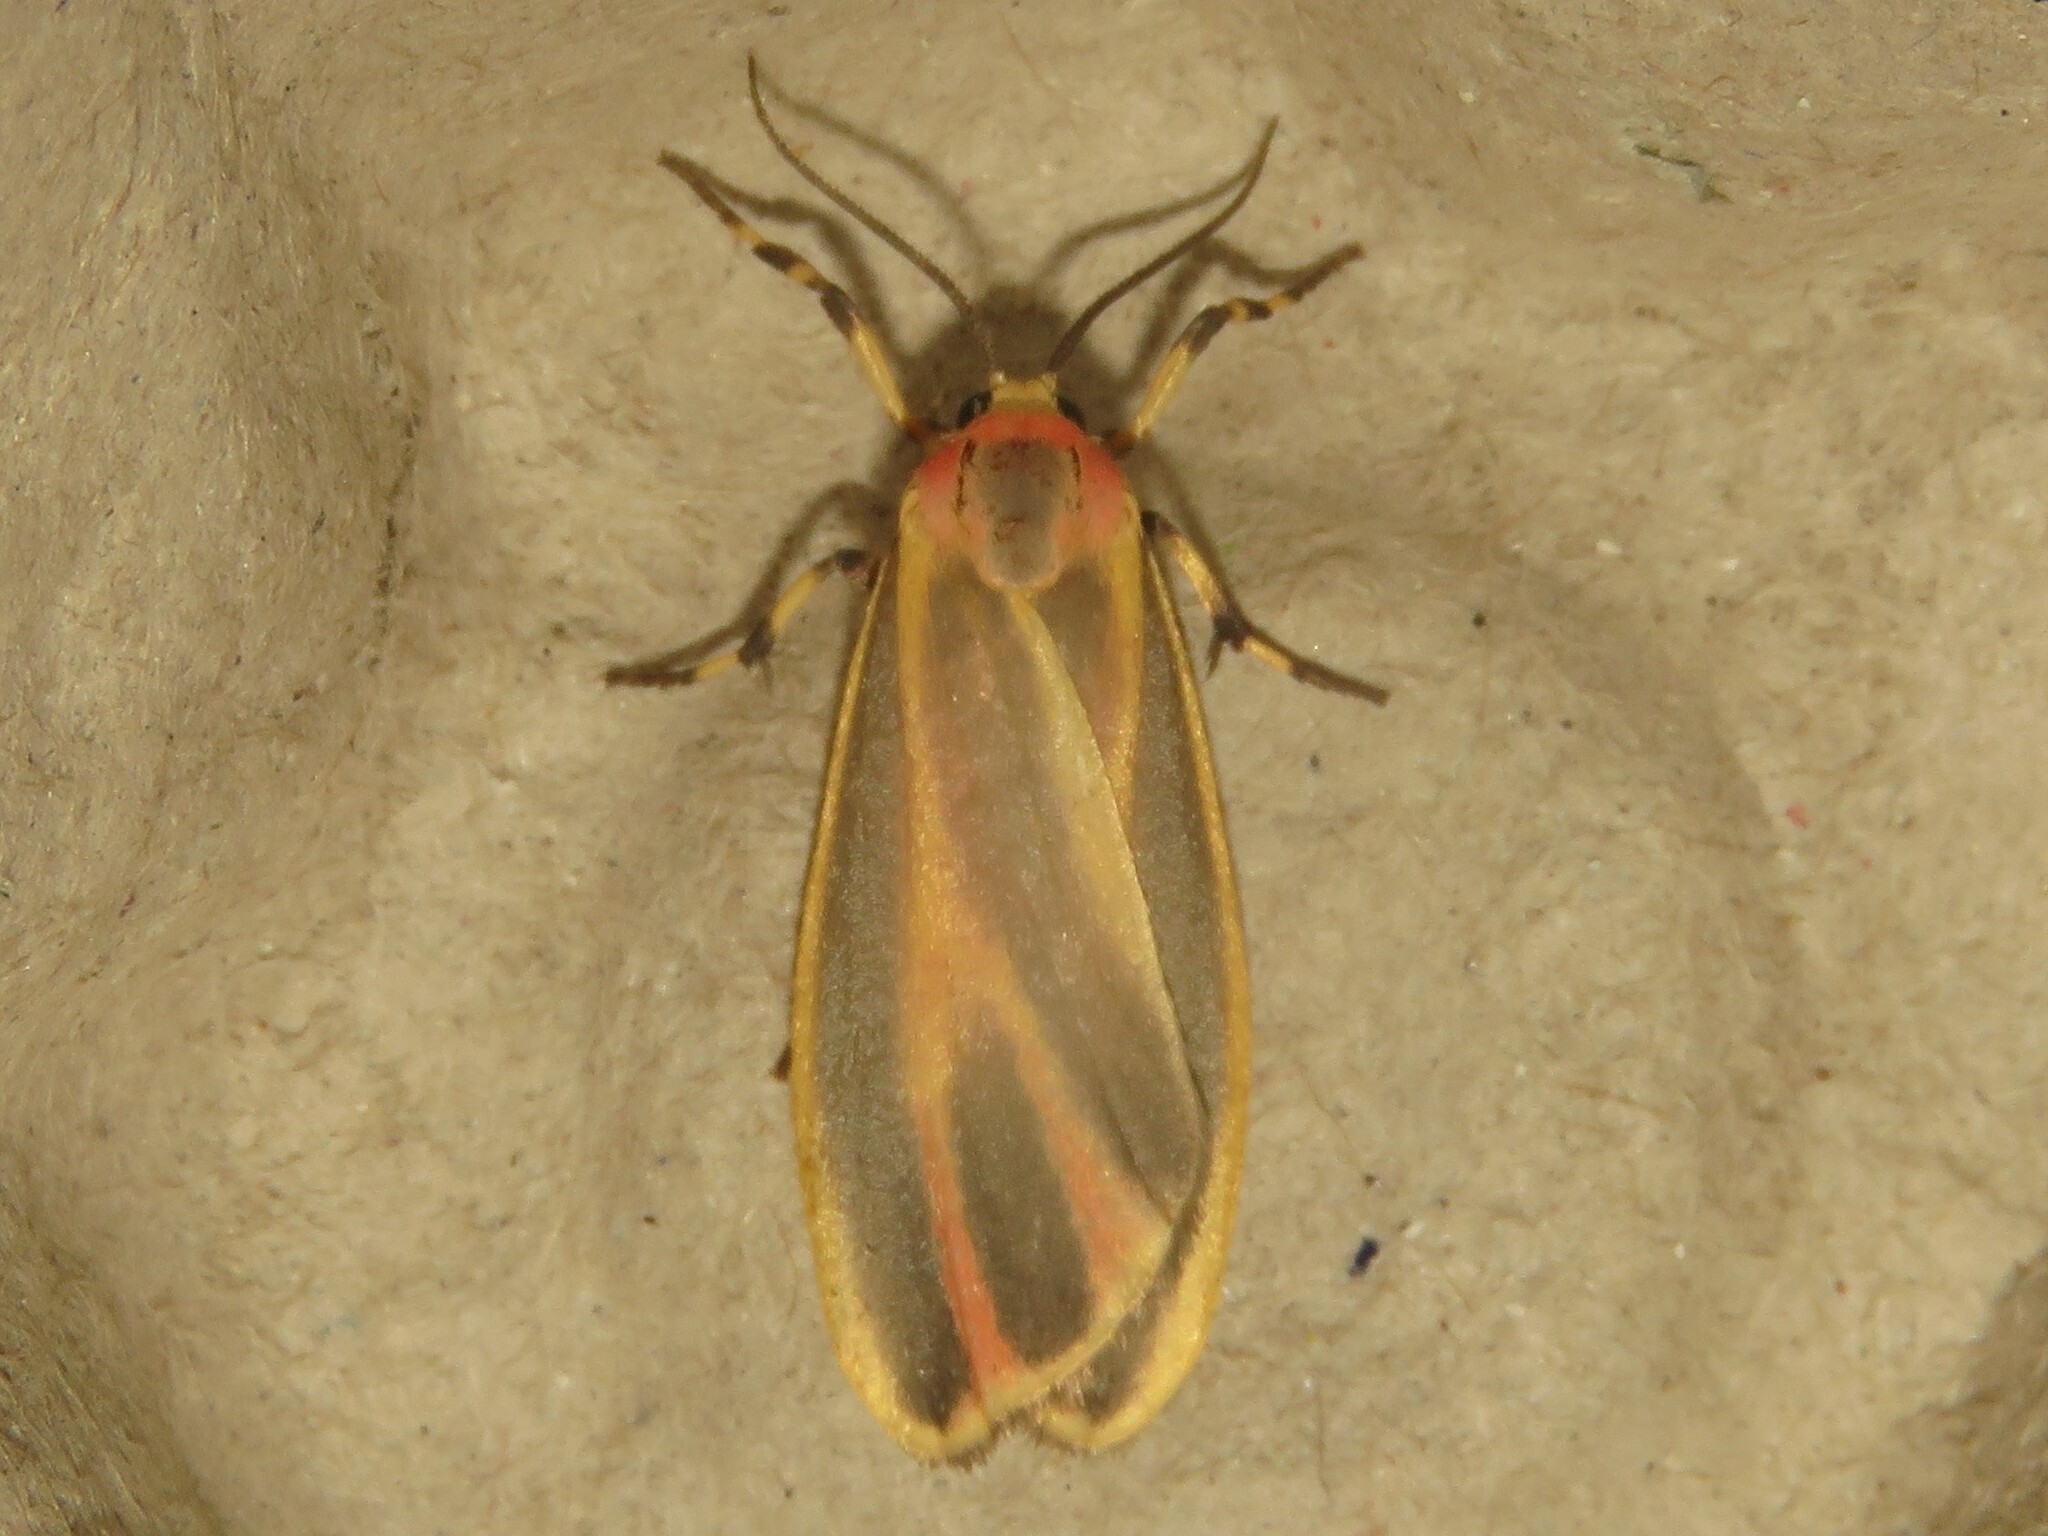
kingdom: Animalia
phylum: Arthropoda
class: Insecta
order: Lepidoptera
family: Erebidae
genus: Hypoprepia
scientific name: Hypoprepia fucosa
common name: Painted lichen moth
